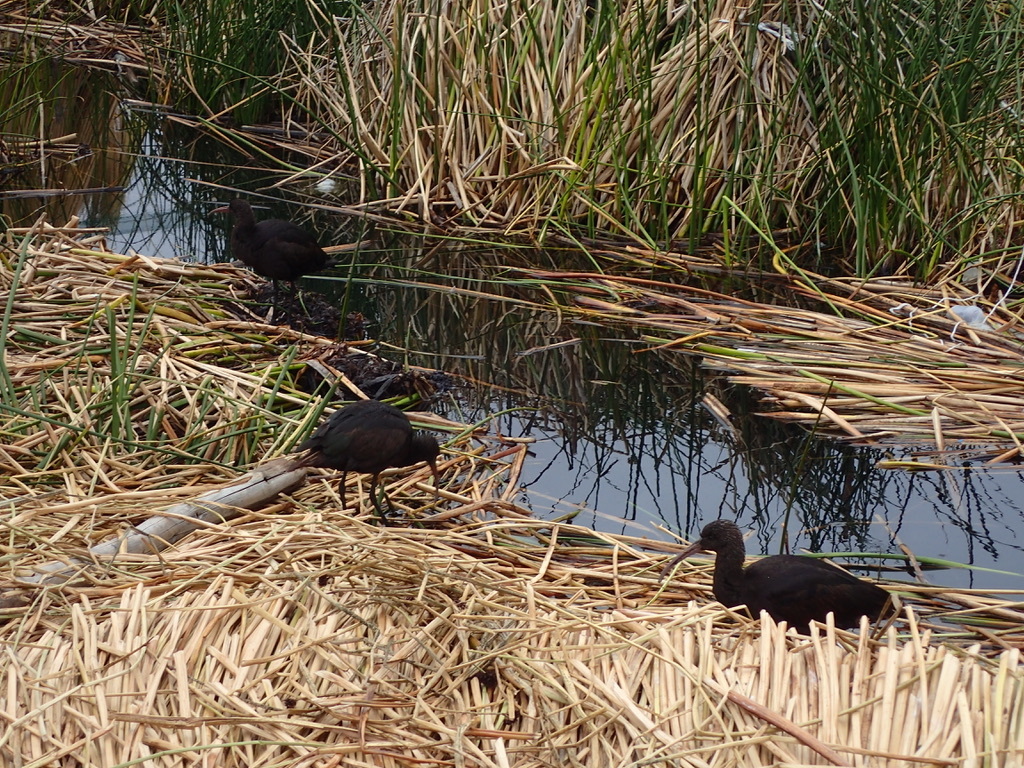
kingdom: Animalia
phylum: Chordata
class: Aves
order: Pelecaniformes
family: Threskiornithidae
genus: Plegadis
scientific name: Plegadis ridgwayi
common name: Puna ibis
